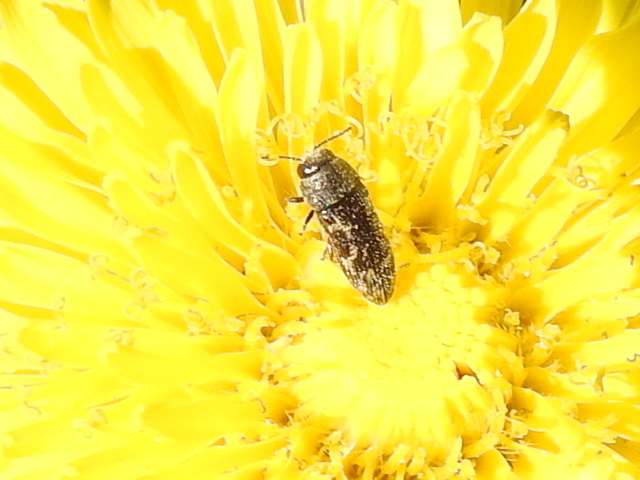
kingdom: Animalia
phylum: Arthropoda
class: Insecta
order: Coleoptera
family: Buprestidae
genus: Acmaeodera
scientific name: Acmaeodera neglecta
